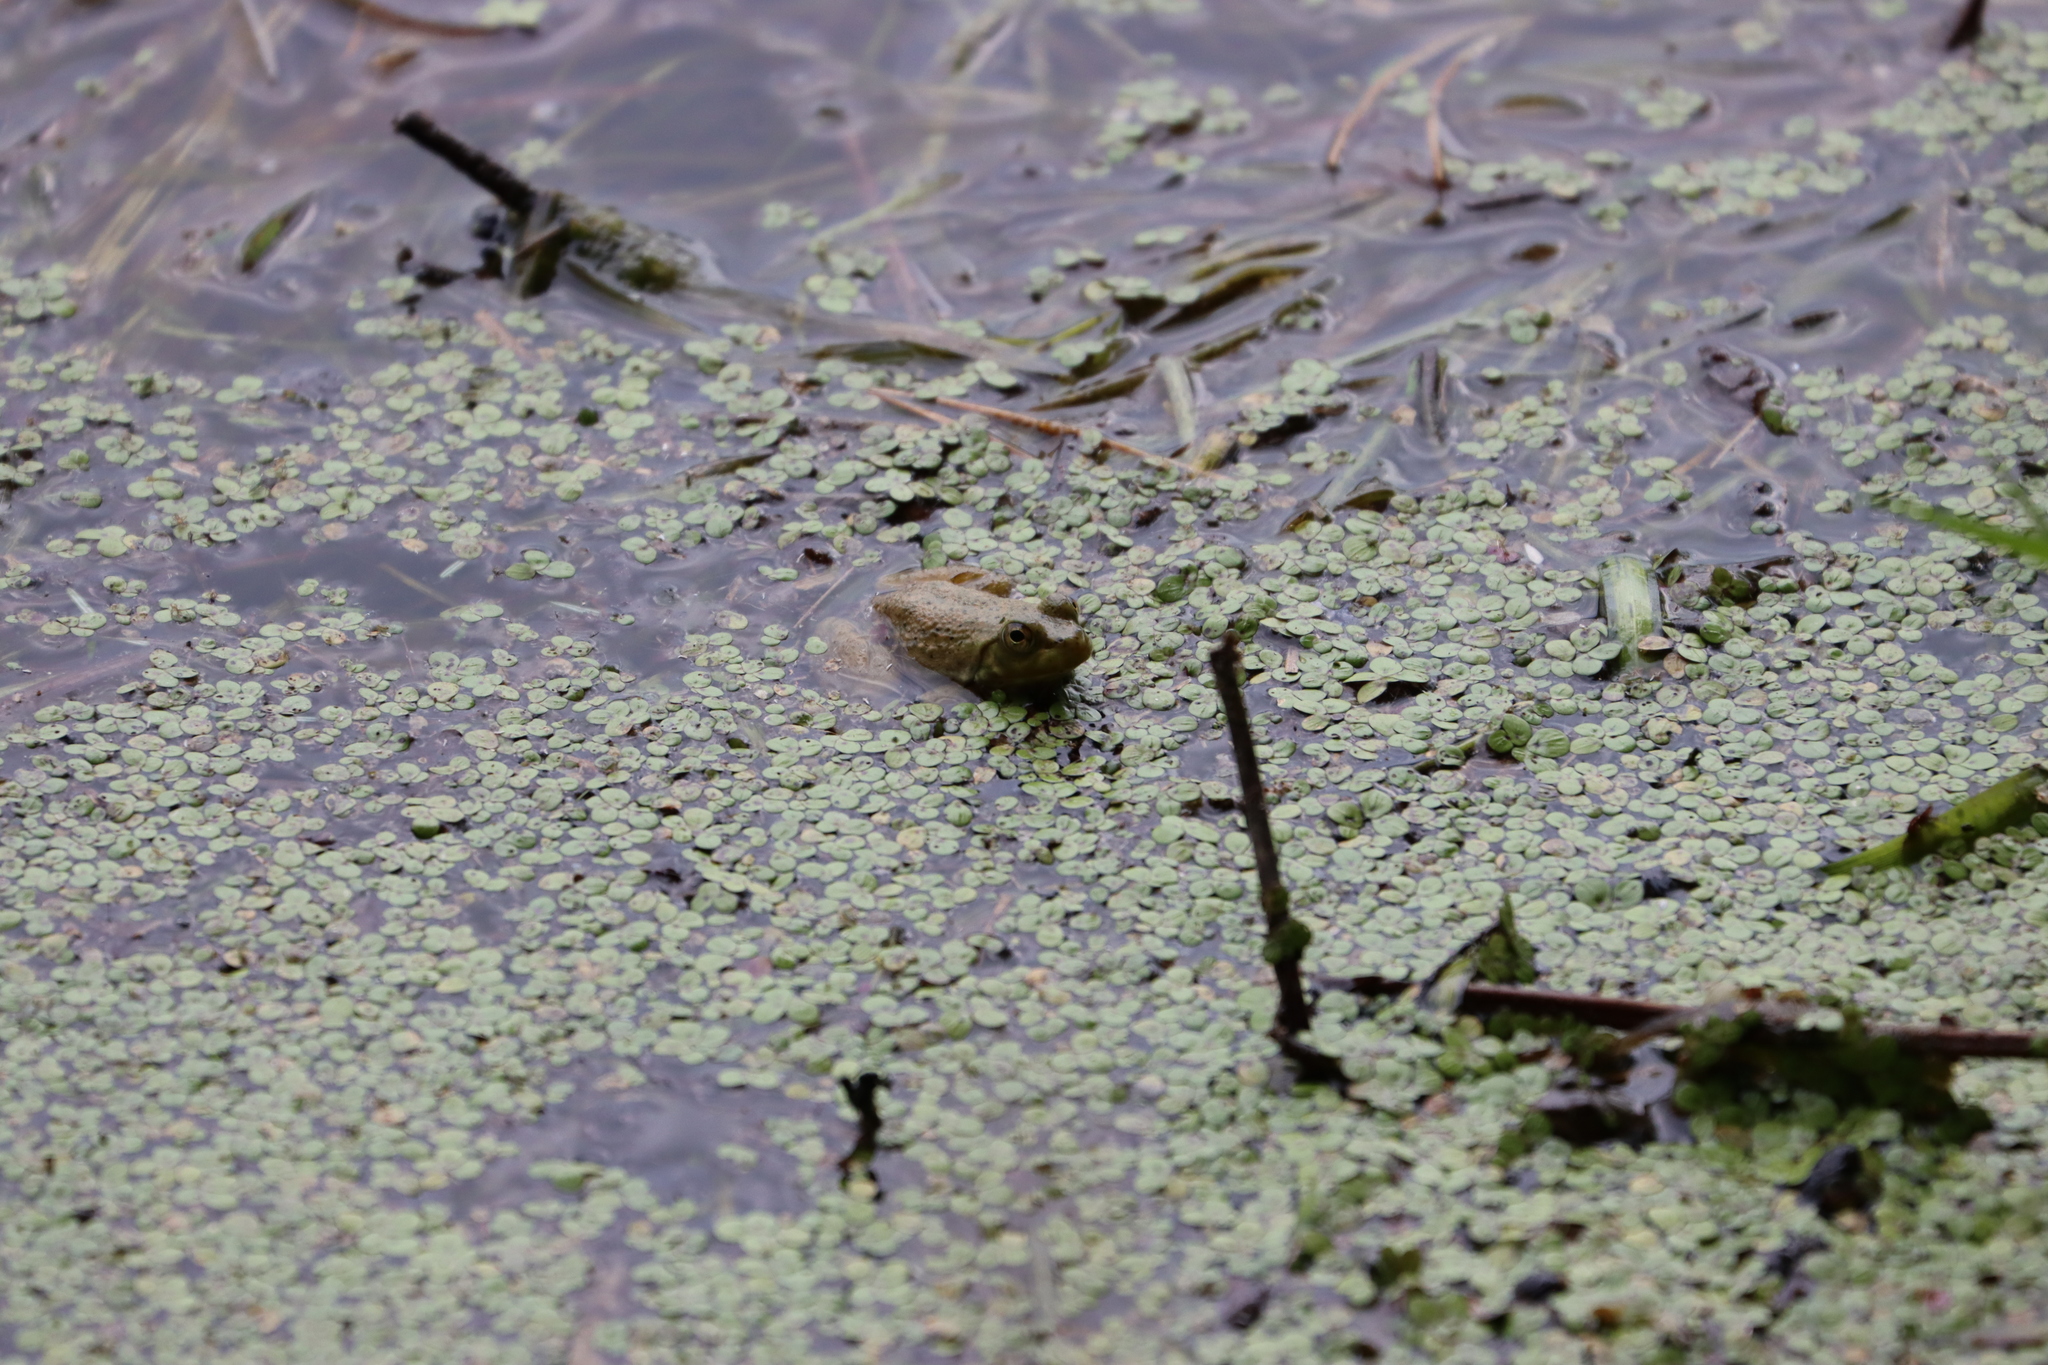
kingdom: Animalia
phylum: Chordata
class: Amphibia
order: Anura
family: Ranidae
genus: Lithobates
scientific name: Lithobates catesbeianus
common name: American bullfrog
